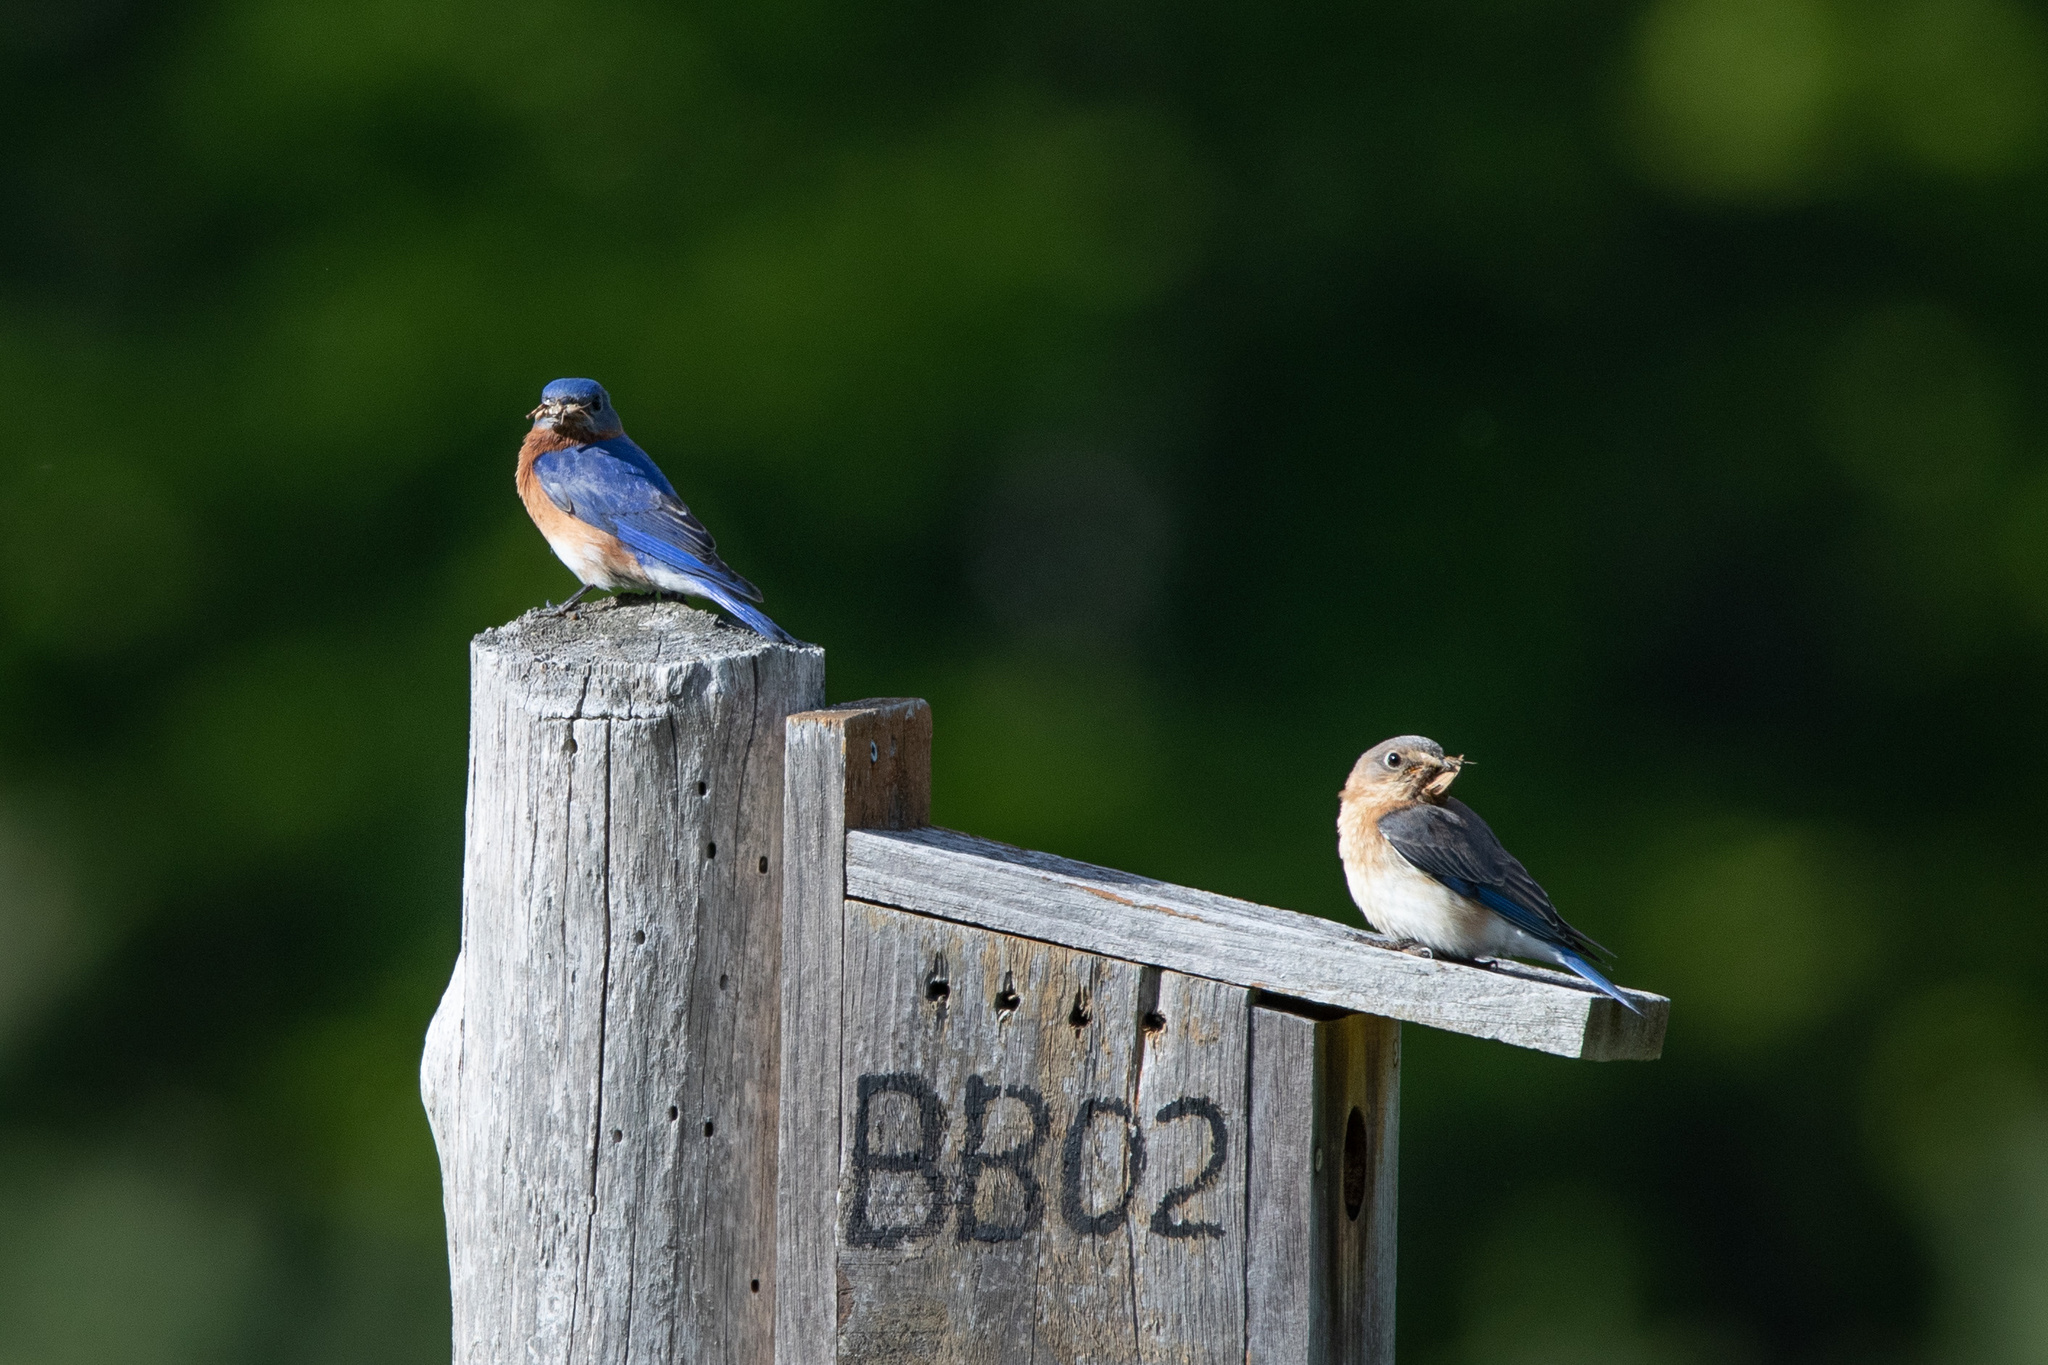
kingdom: Animalia
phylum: Chordata
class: Aves
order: Passeriformes
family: Turdidae
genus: Sialia
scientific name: Sialia sialis
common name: Eastern bluebird
